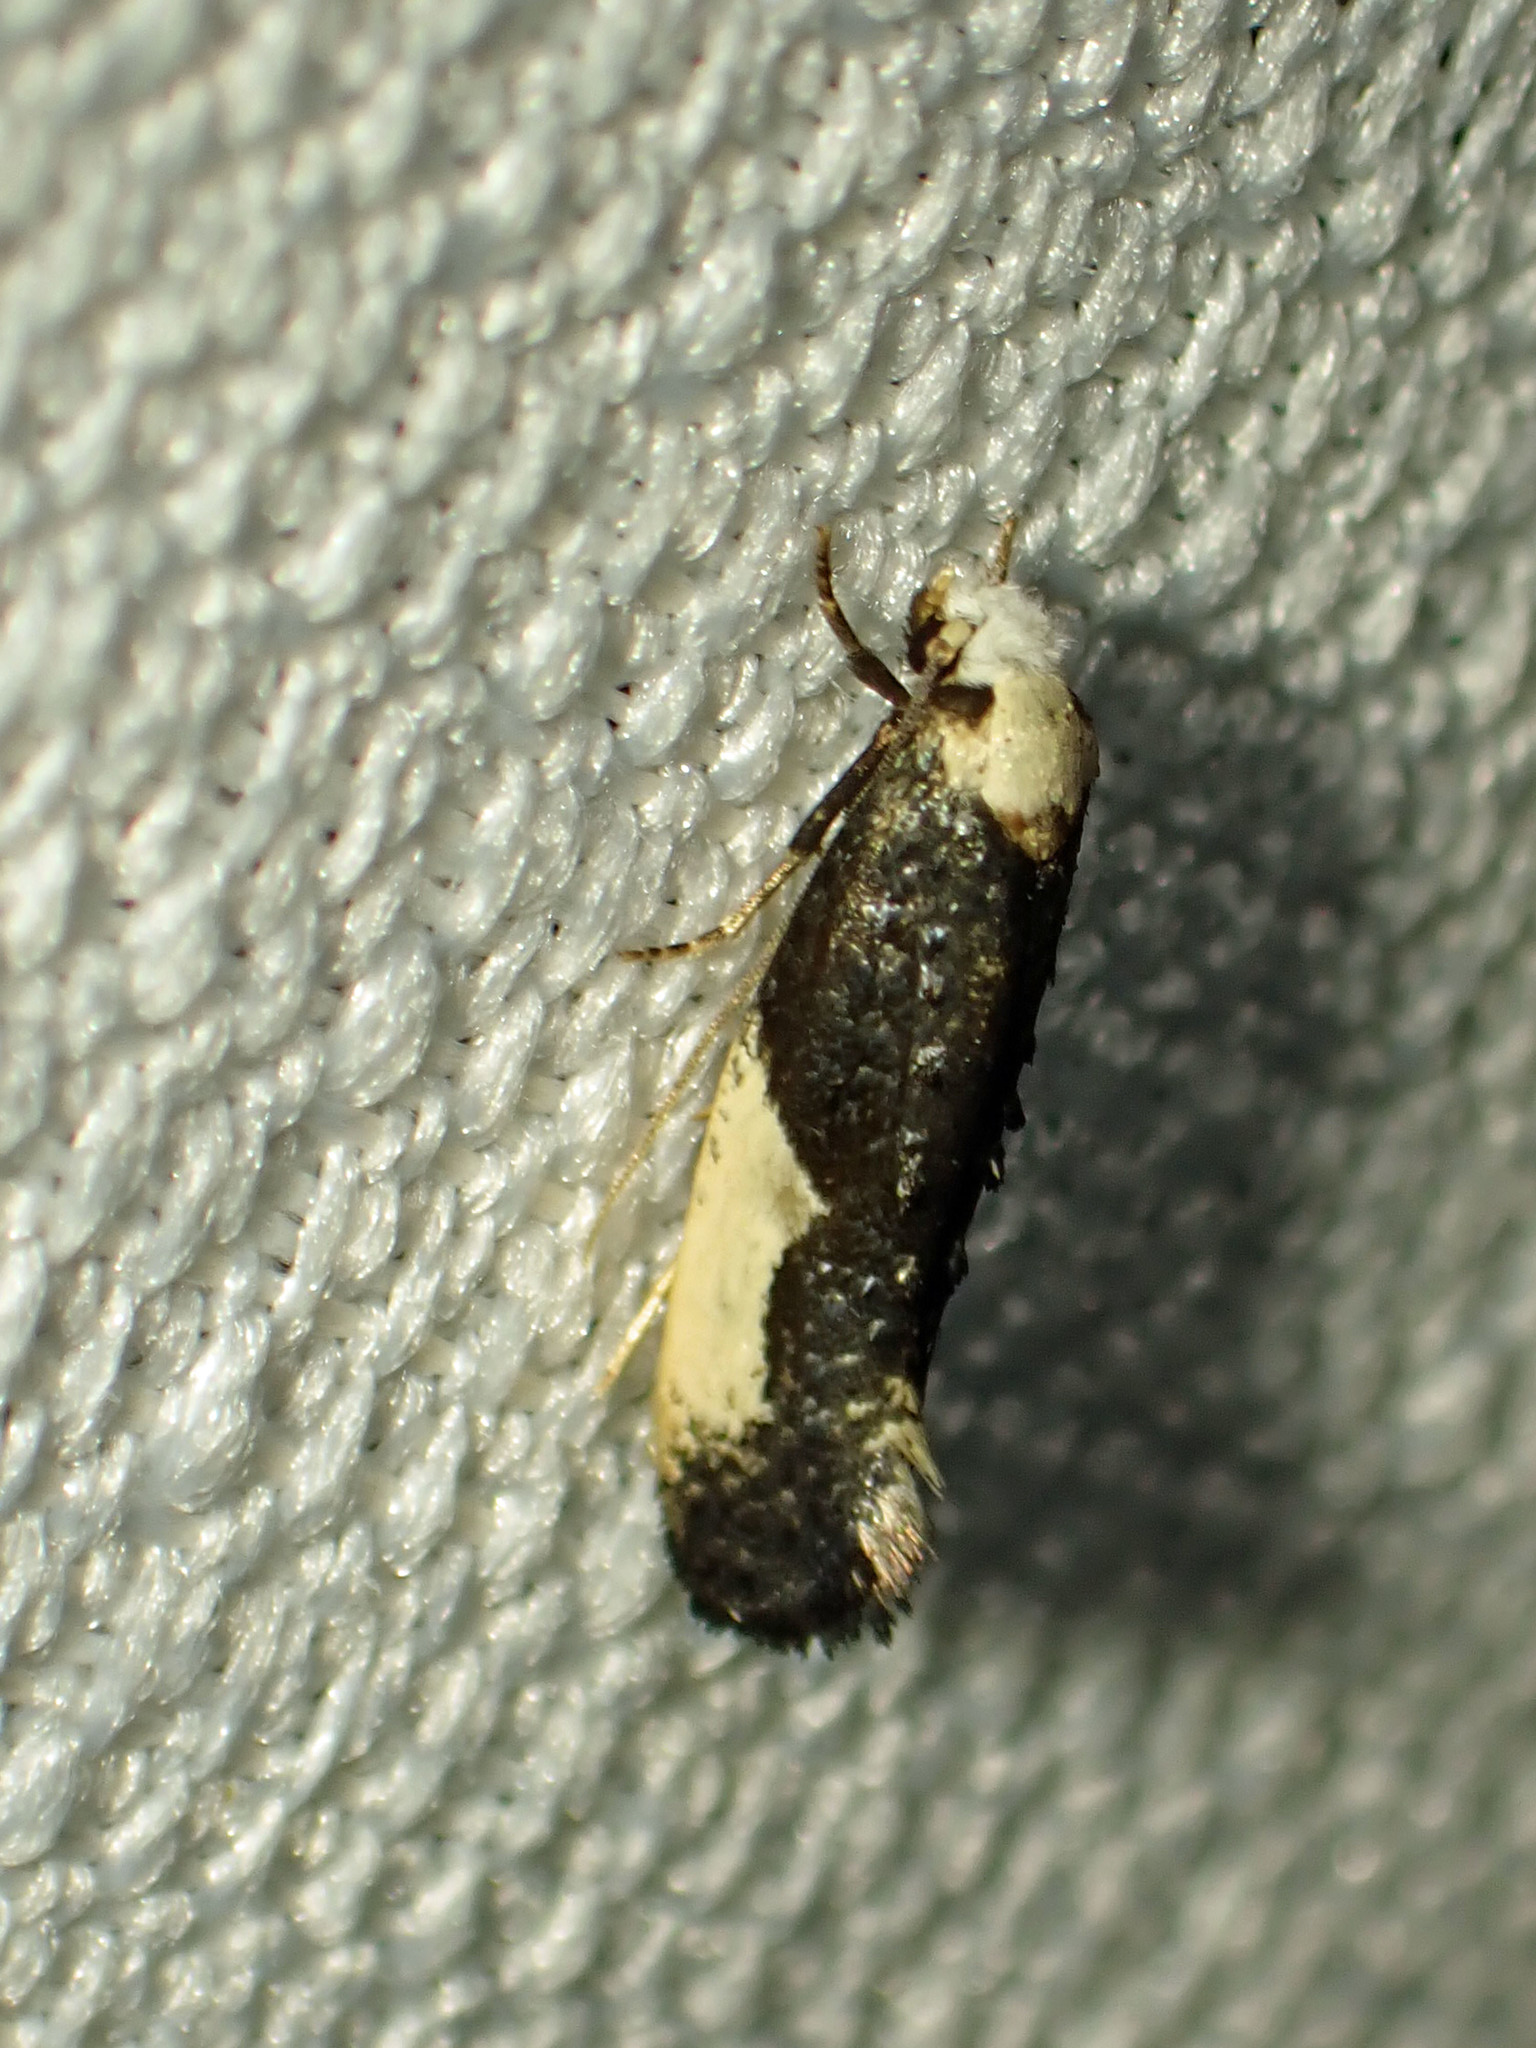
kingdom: Animalia
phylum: Arthropoda
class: Insecta
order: Lepidoptera
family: Tineidae
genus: Monopis
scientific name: Monopis monachella
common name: Moth
